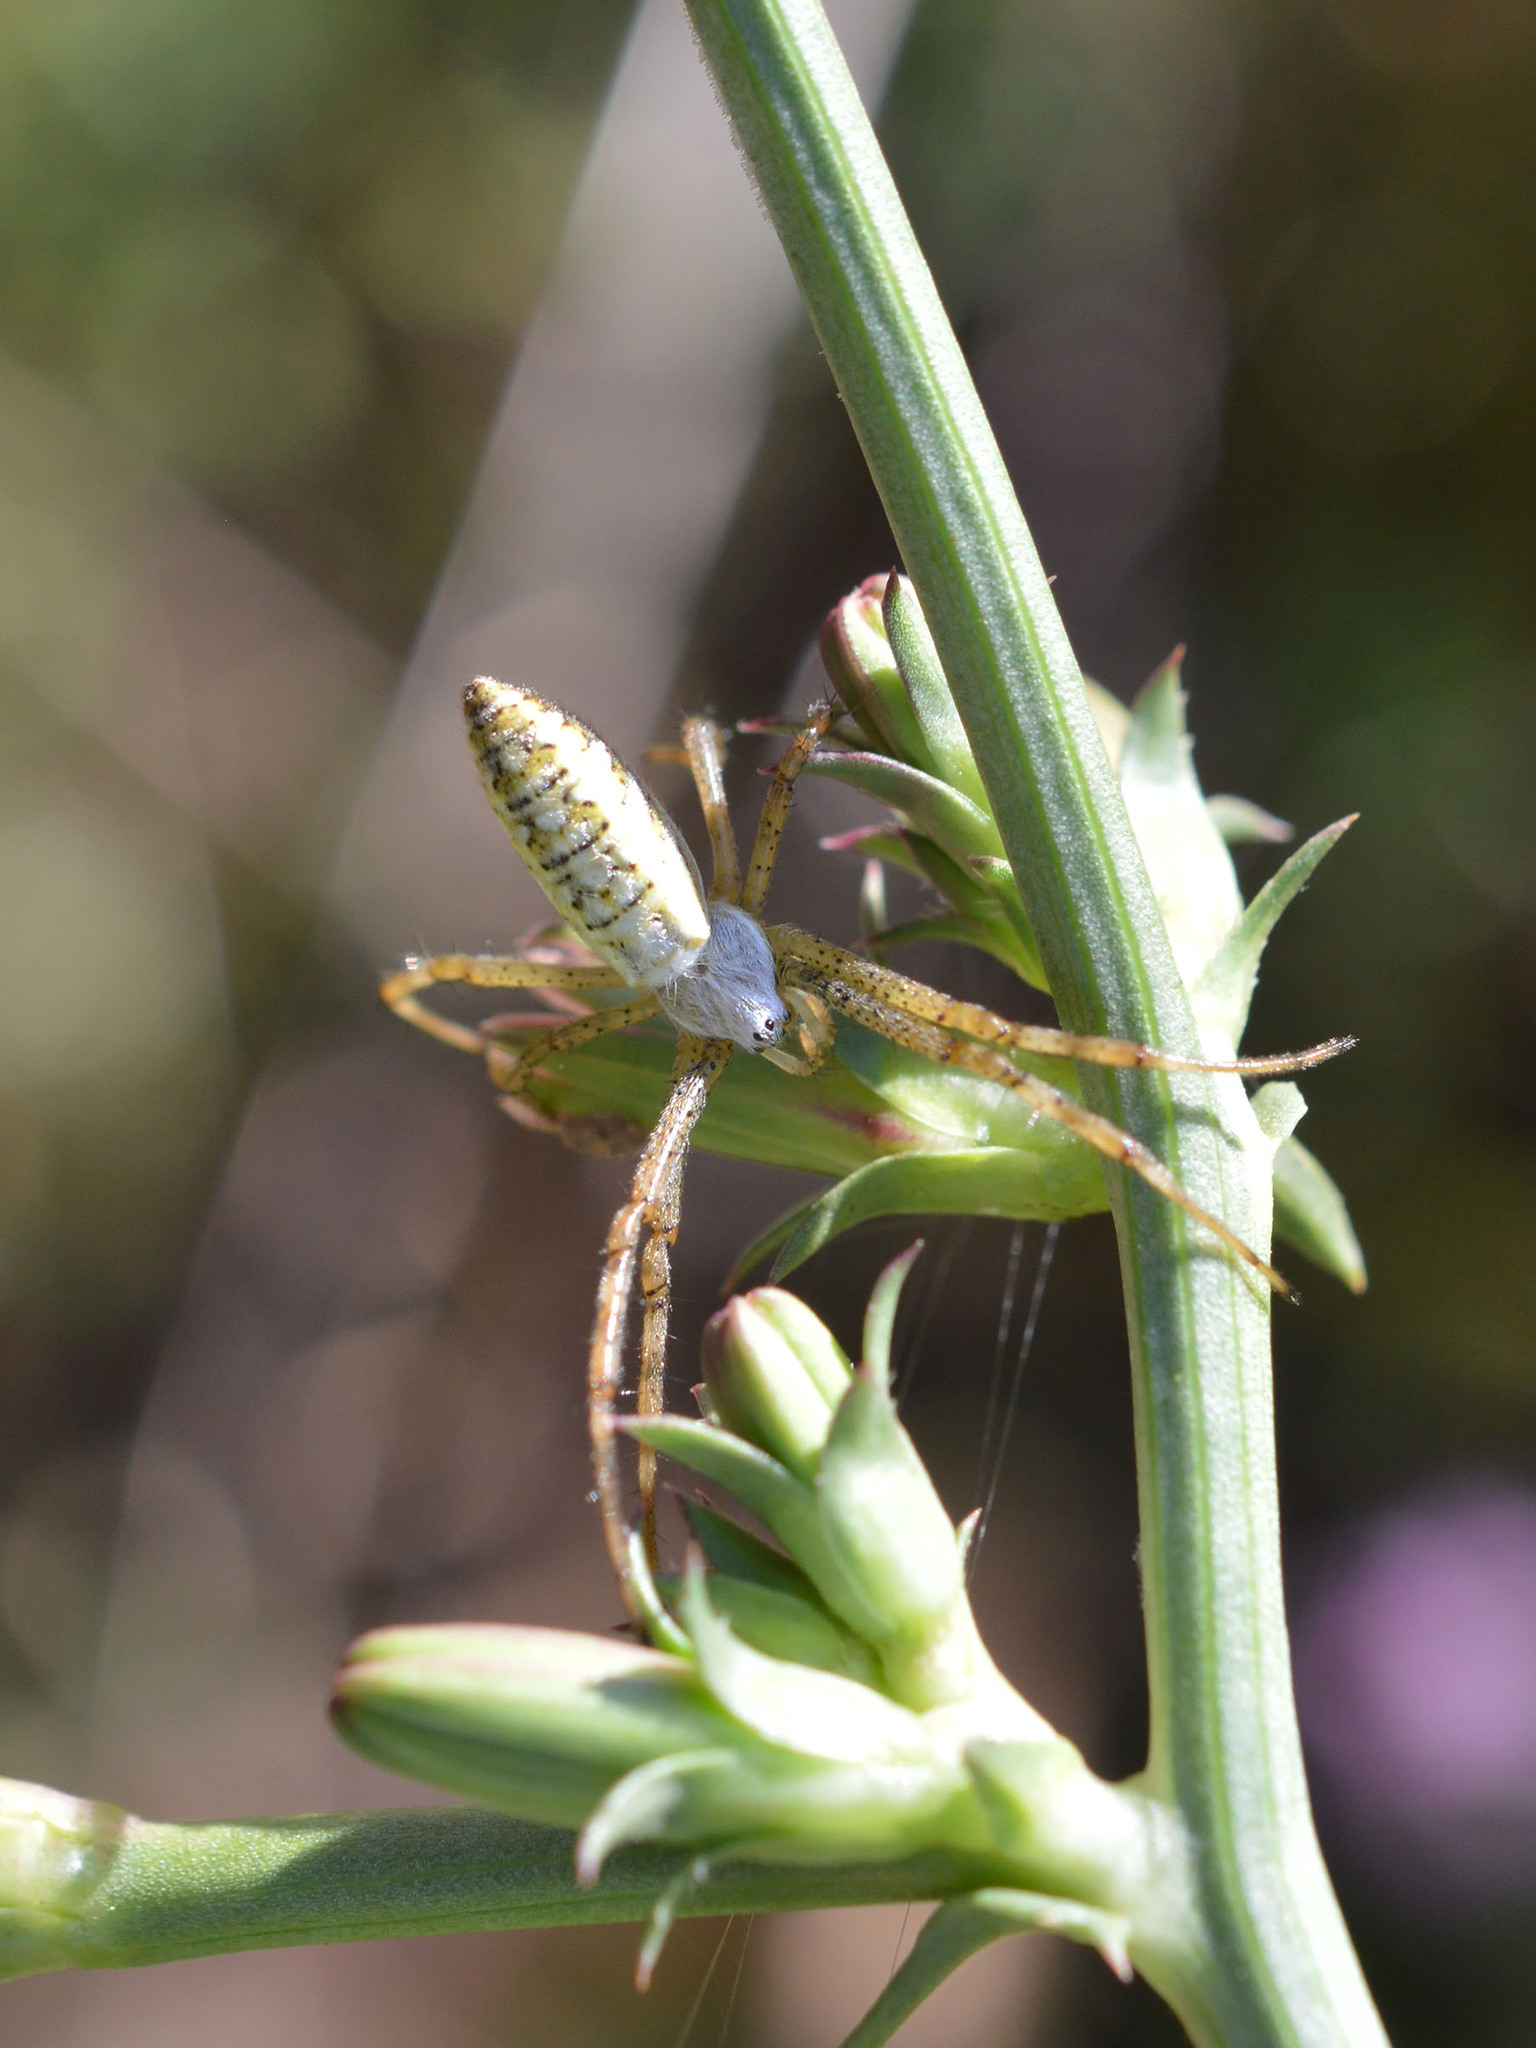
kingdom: Animalia
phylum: Arthropoda
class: Arachnida
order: Araneae
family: Araneidae
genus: Argiope
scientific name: Argiope bruennichi
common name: Wasp spider
